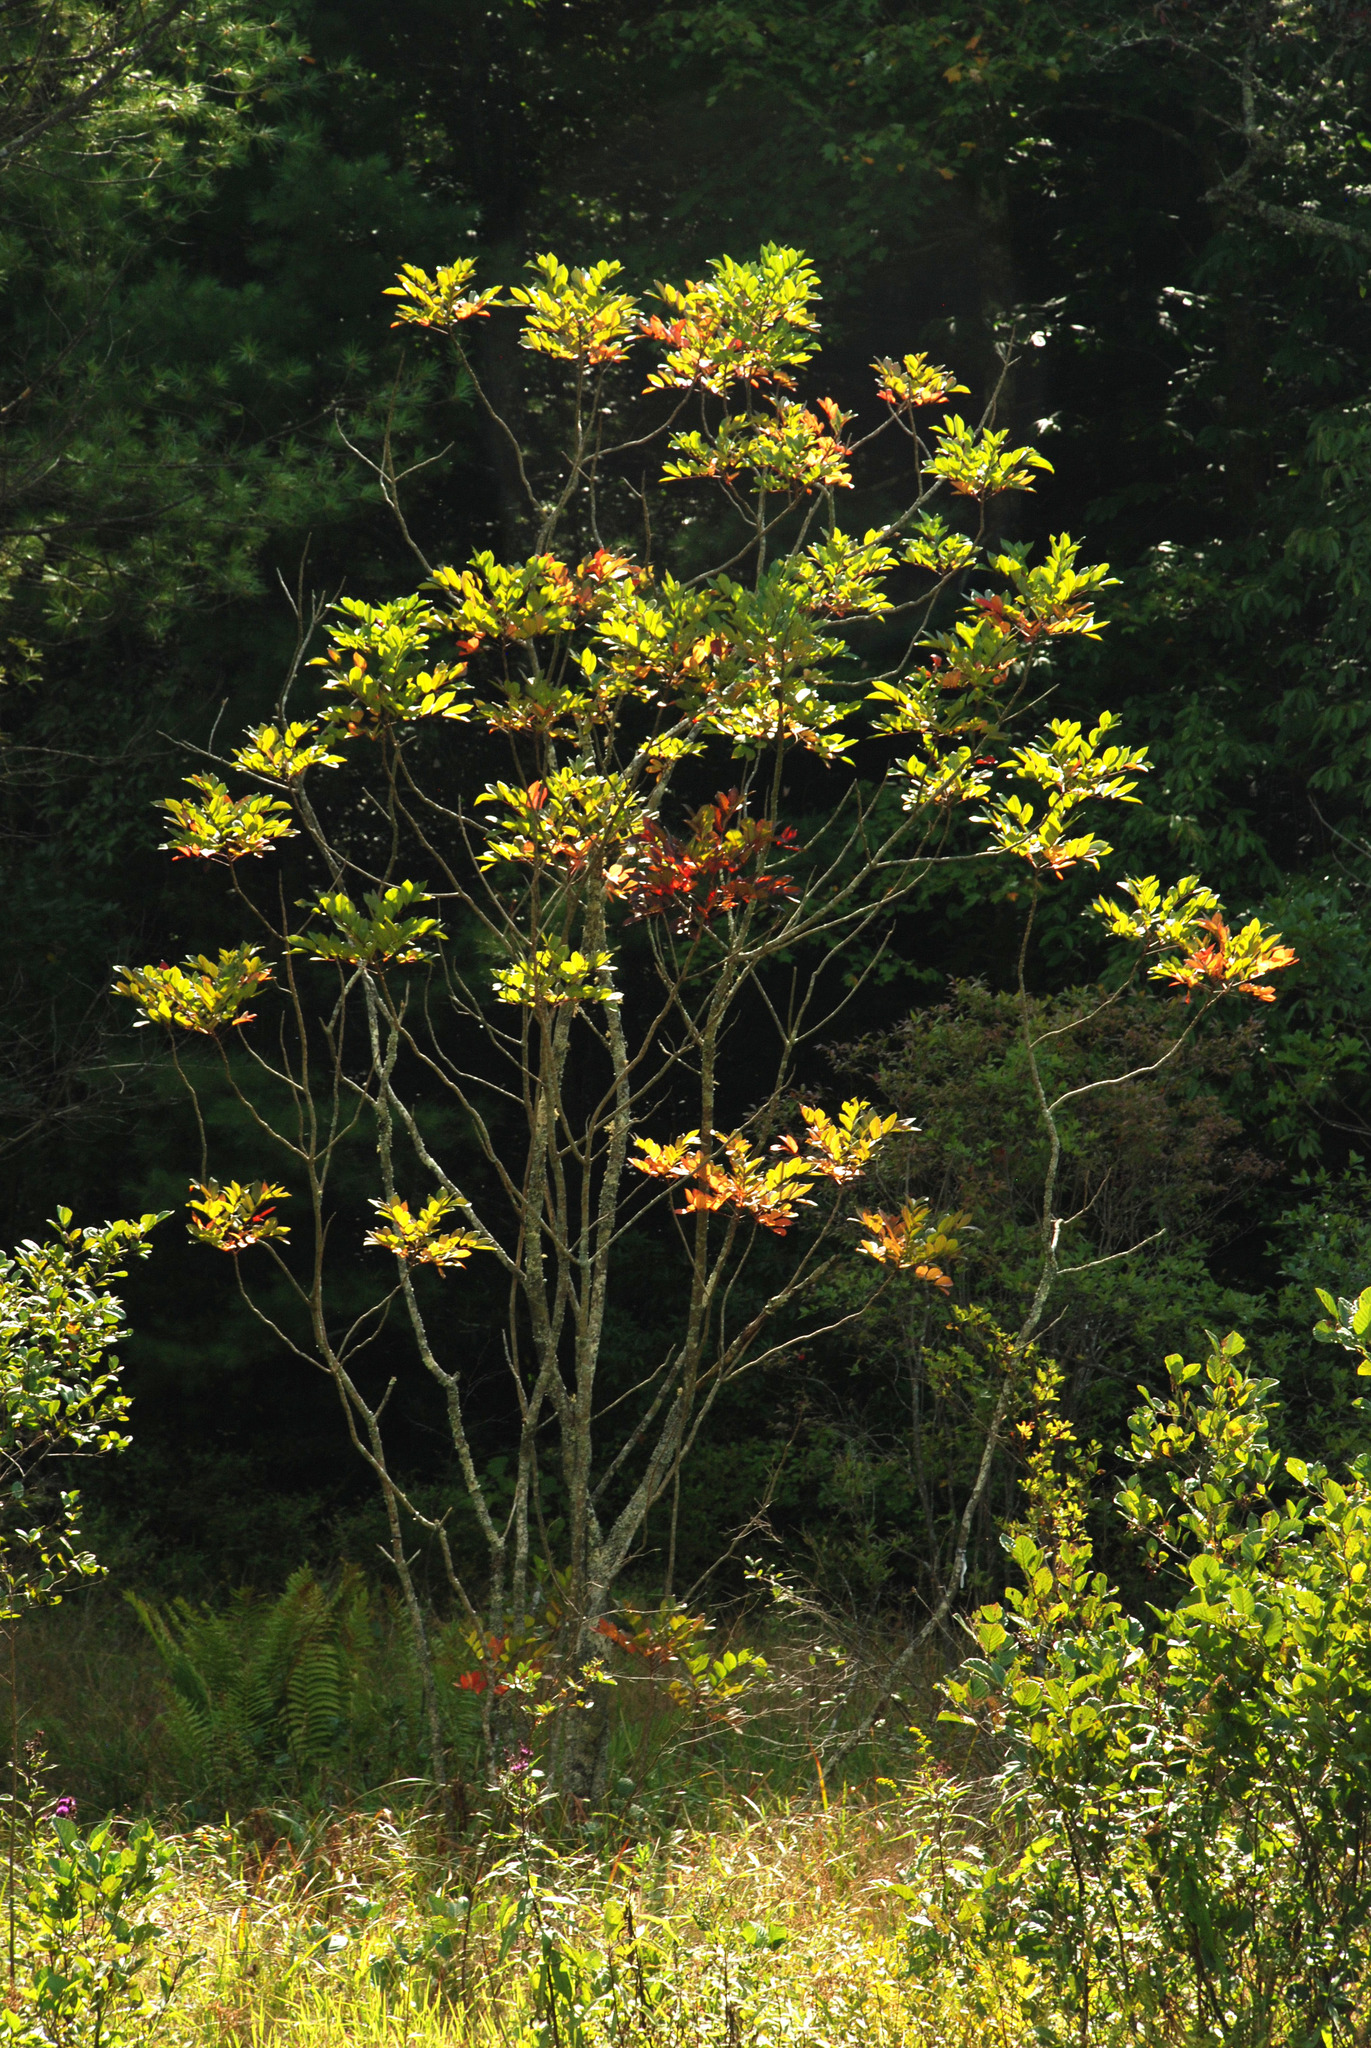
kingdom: Plantae
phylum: Tracheophyta
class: Magnoliopsida
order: Sapindales
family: Anacardiaceae
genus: Toxicodendron
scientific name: Toxicodendron vernix
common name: Poison sumac
